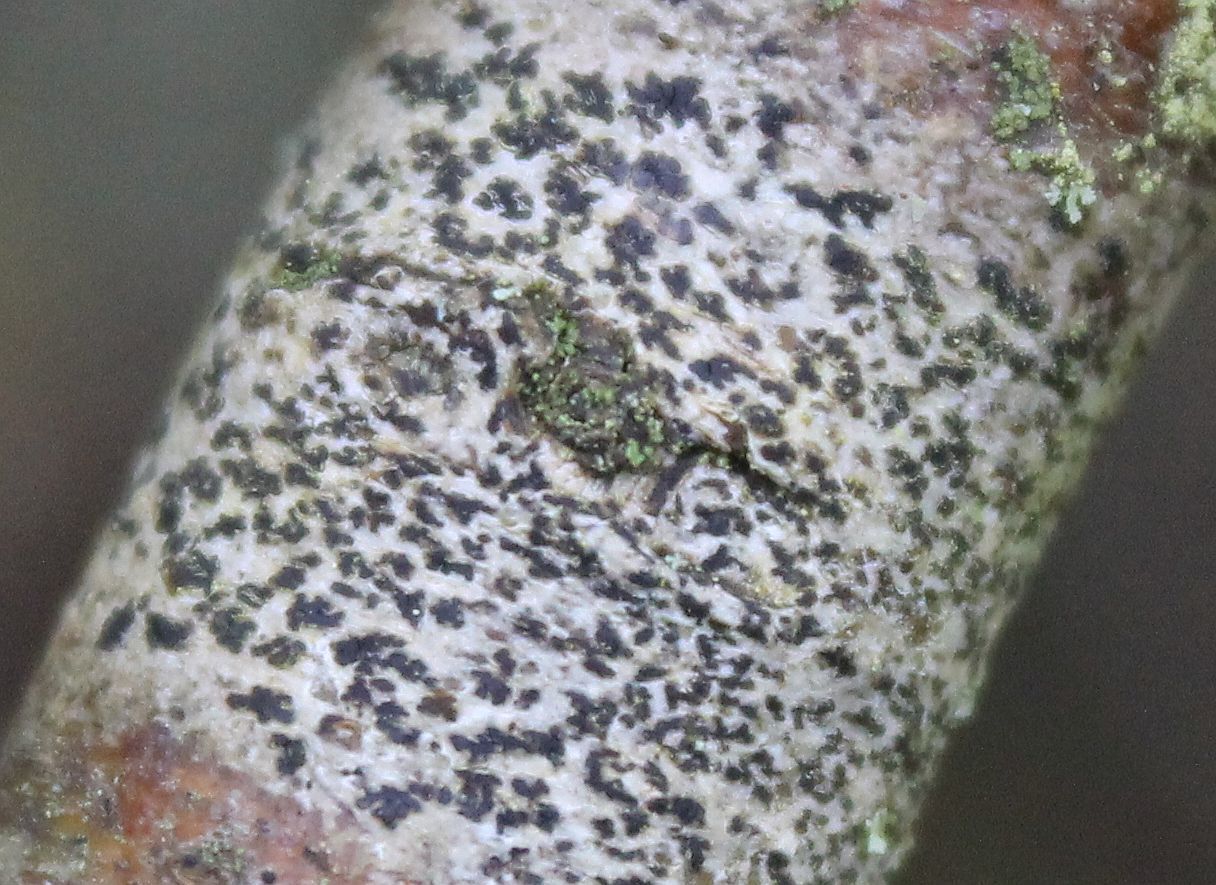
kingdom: Fungi
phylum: Ascomycota
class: Arthoniomycetes
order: Arthoniales
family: Arthoniaceae
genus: Arthonia
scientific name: Arthonia radiata
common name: Asterisk lichen
